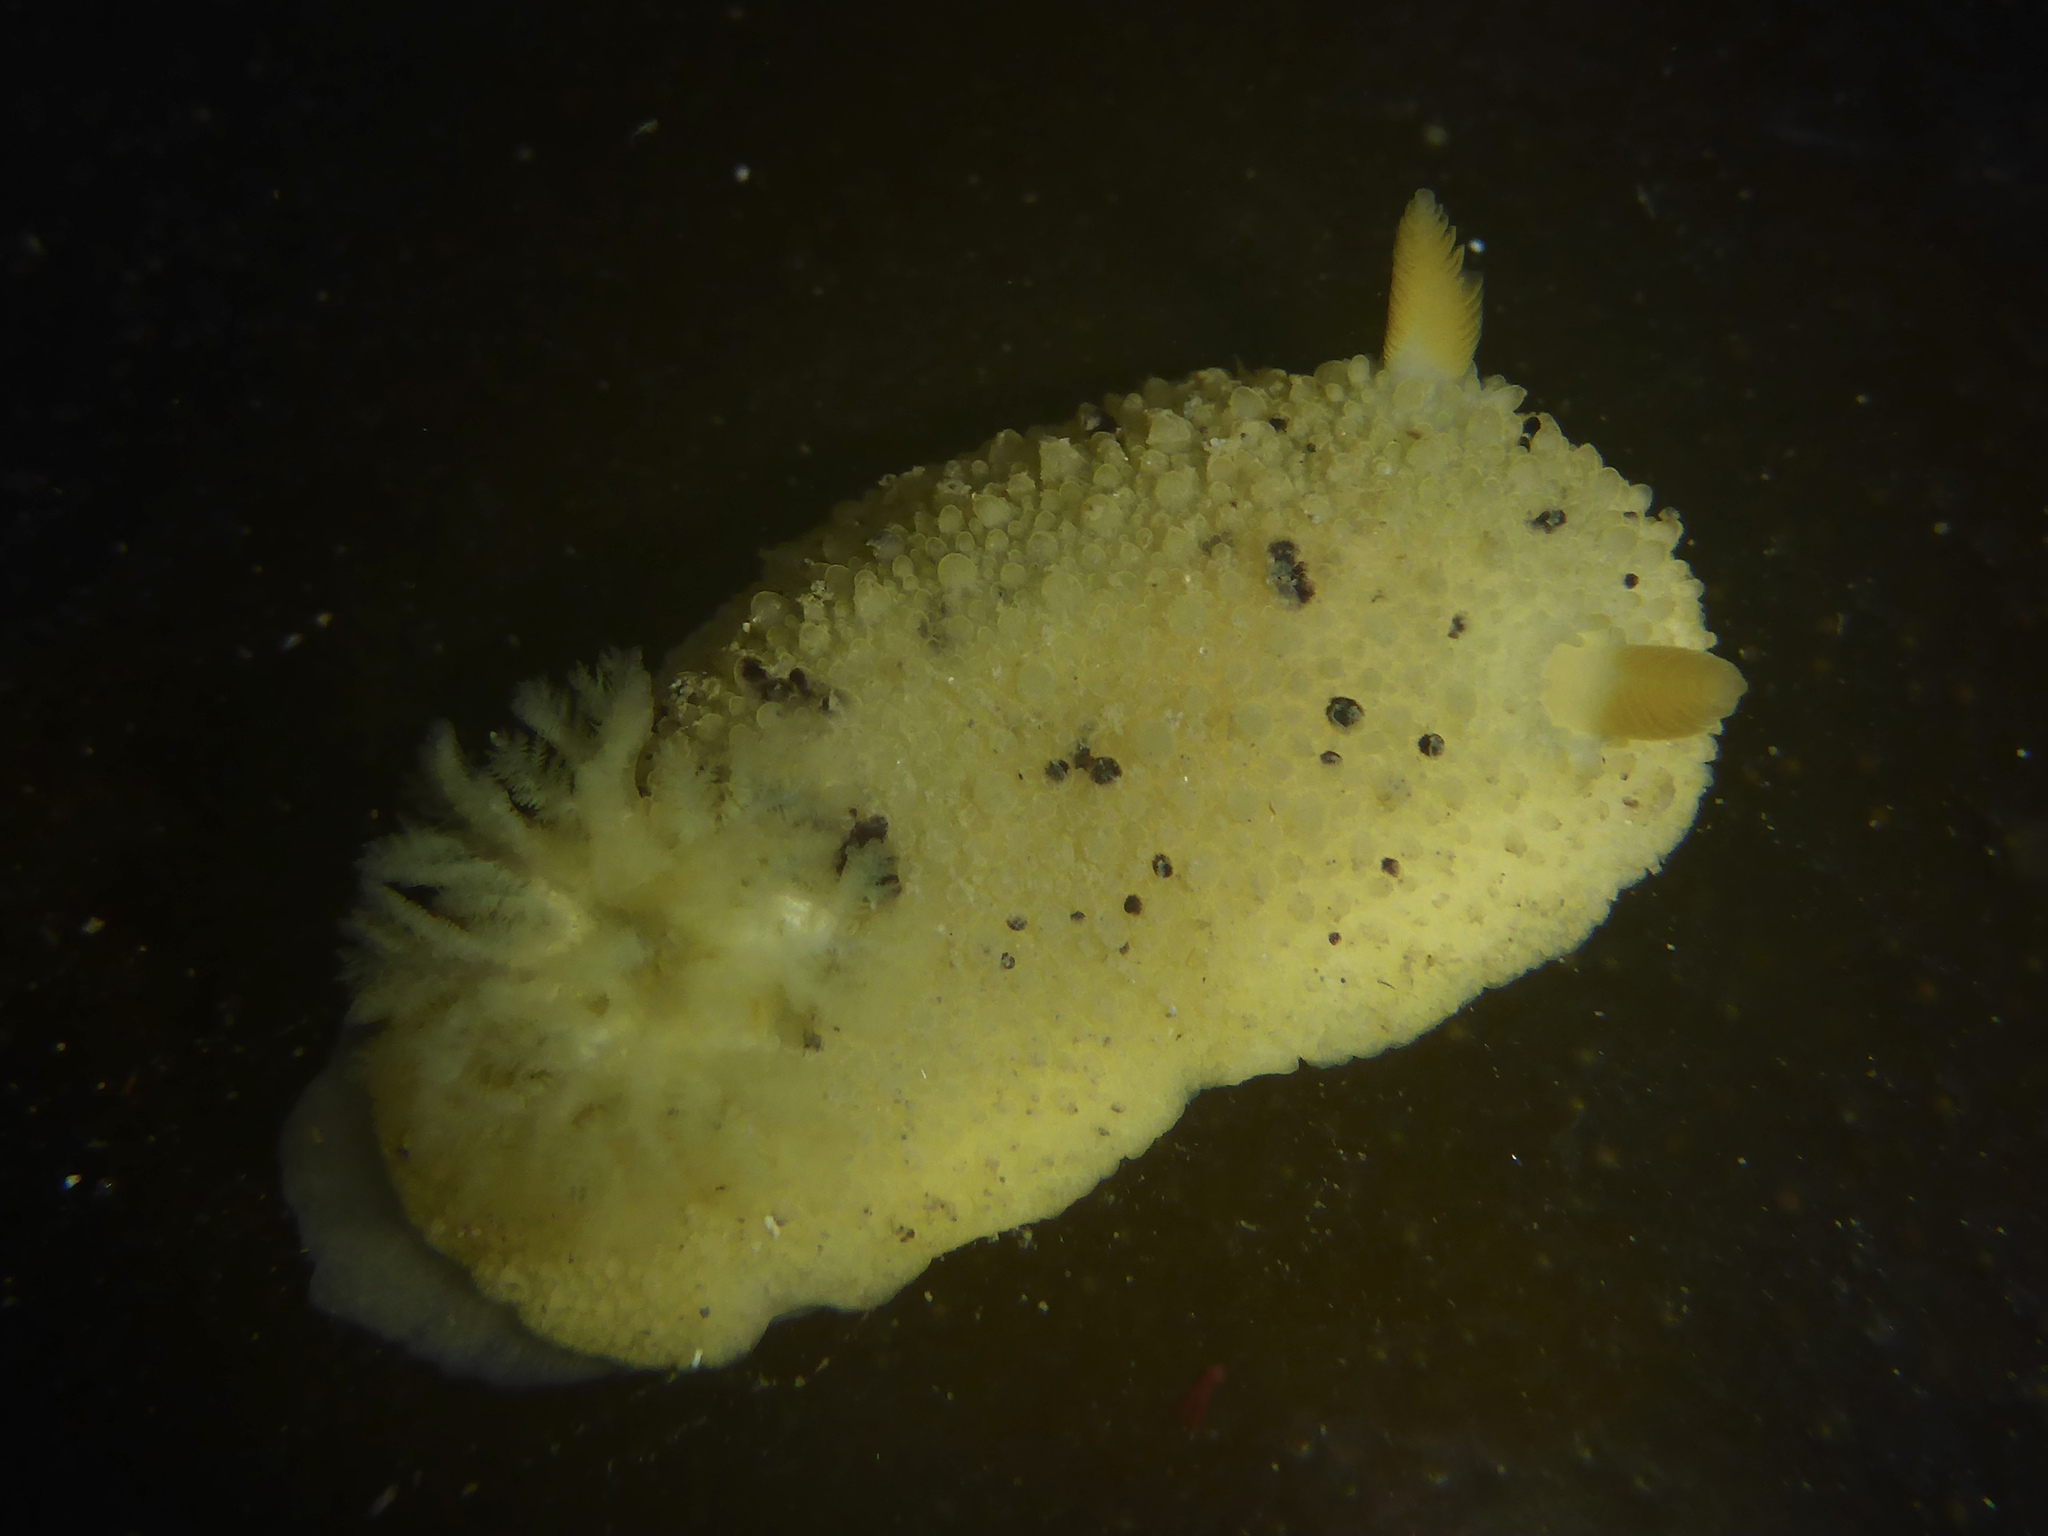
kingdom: Animalia
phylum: Mollusca
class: Gastropoda
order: Nudibranchia
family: Dorididae
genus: Doris
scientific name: Doris montereyensis
